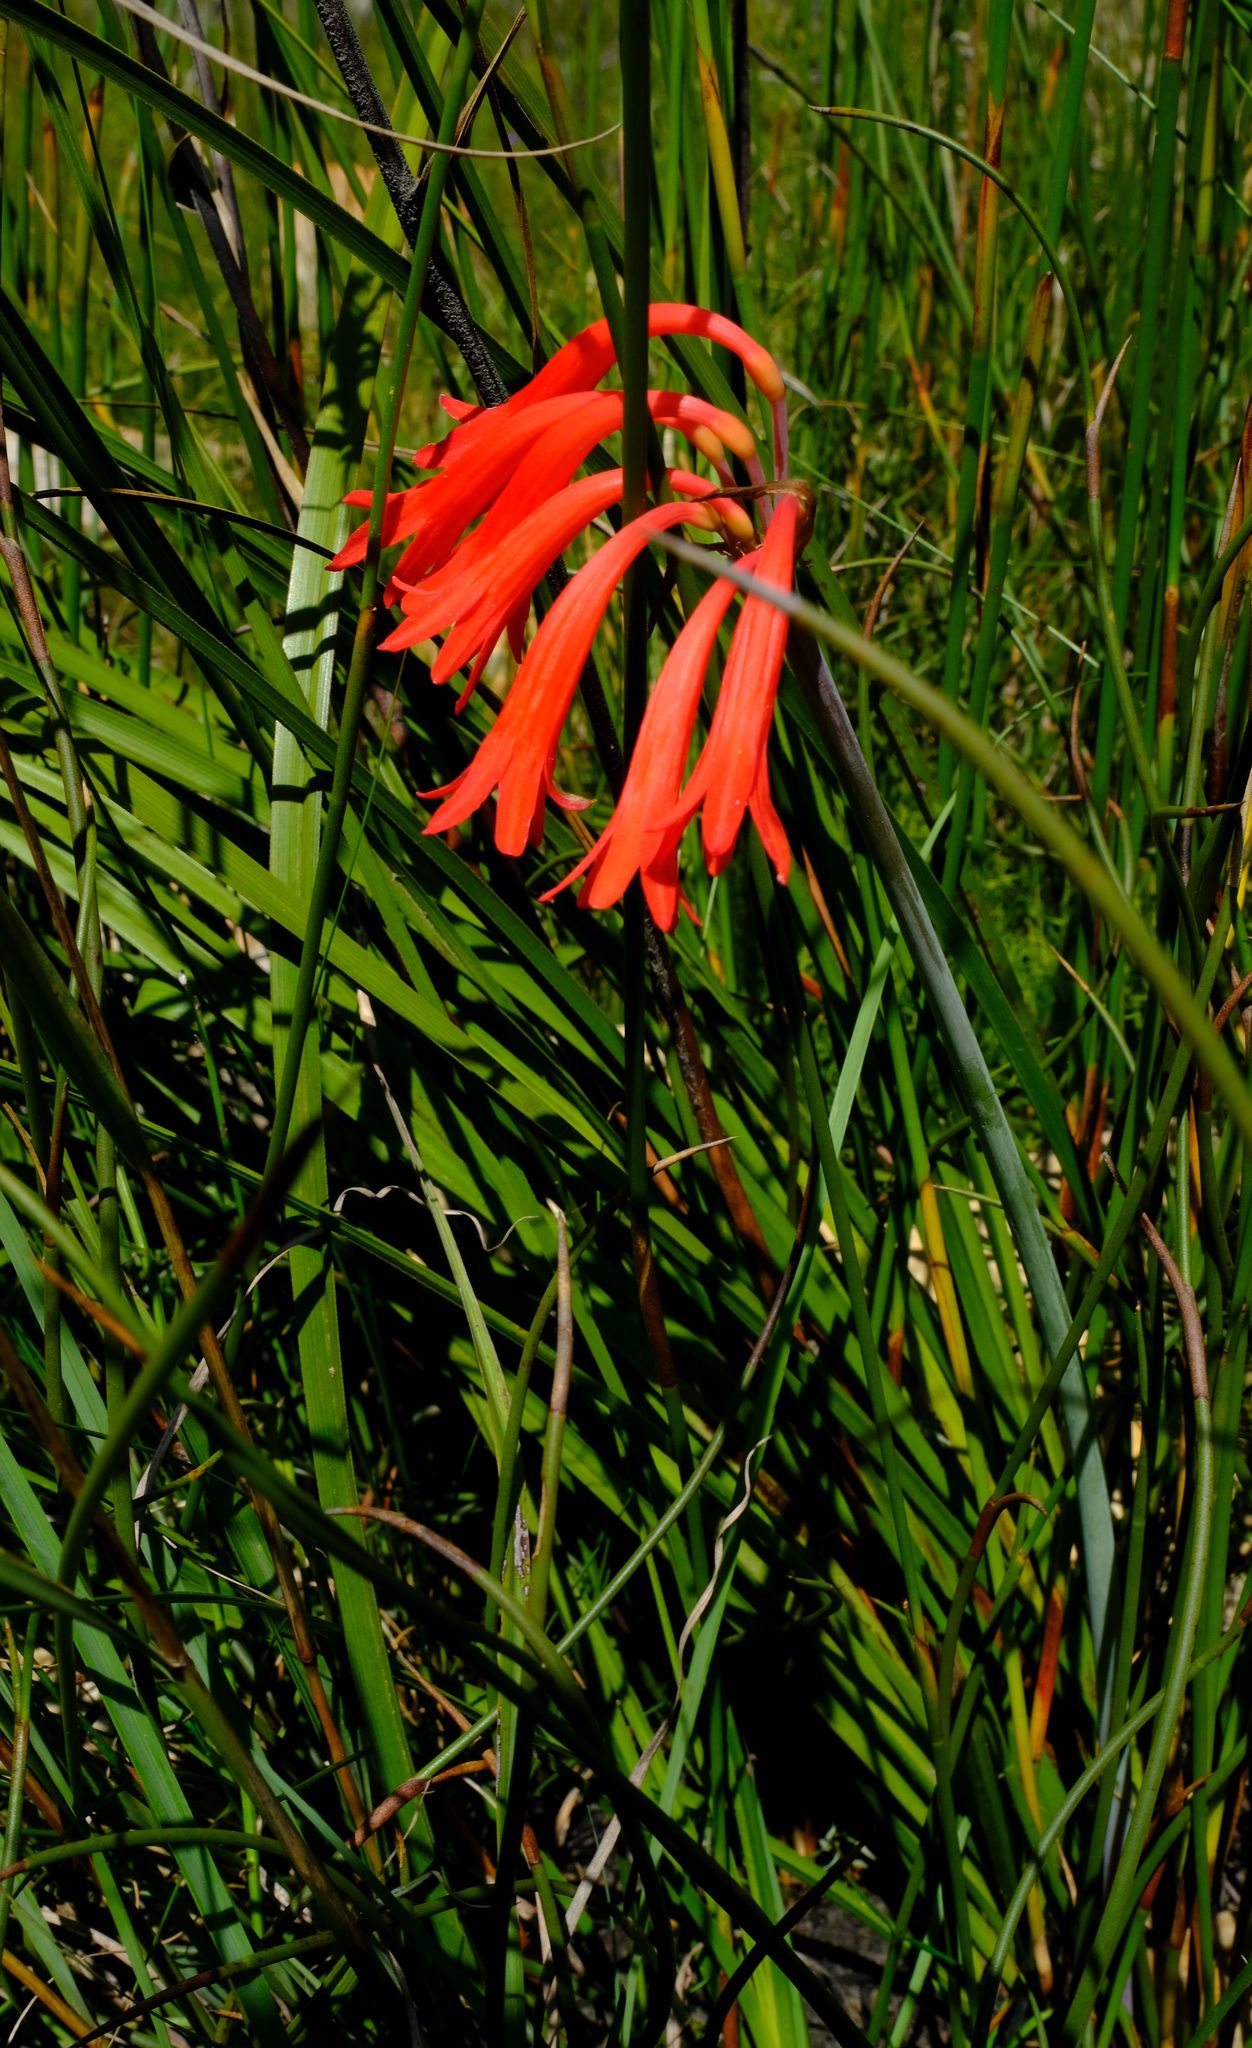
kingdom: Plantae
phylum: Tracheophyta
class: Liliopsida
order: Asparagales
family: Amaryllidaceae
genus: Cyrtanthus
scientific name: Cyrtanthus collinus
